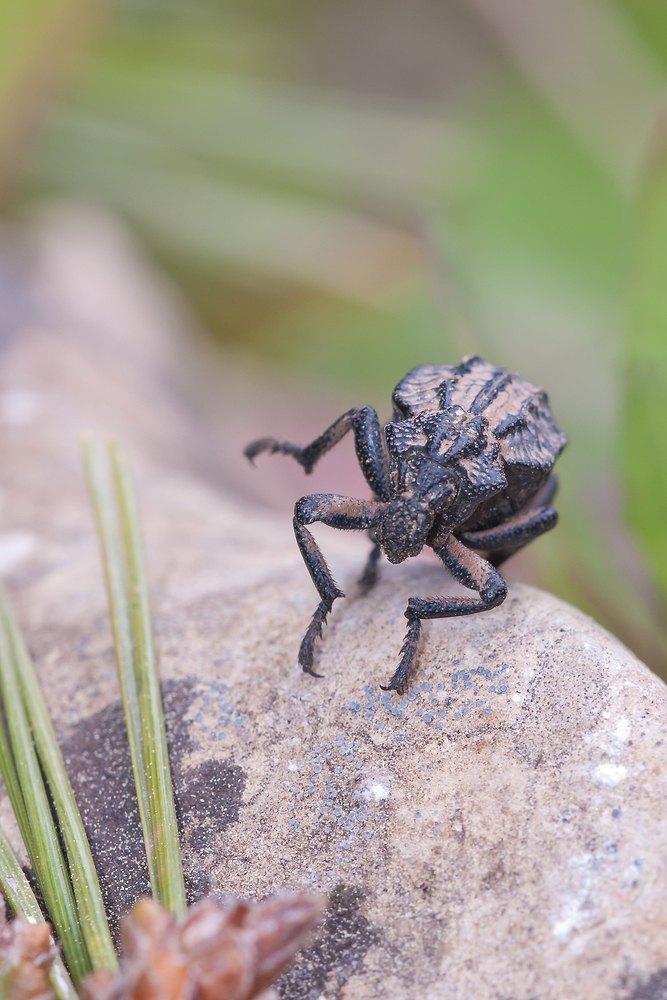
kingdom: Animalia
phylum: Arthropoda
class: Insecta
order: Coleoptera
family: Brachyceridae
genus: Brachycerus
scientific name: Brachycerus undatus
